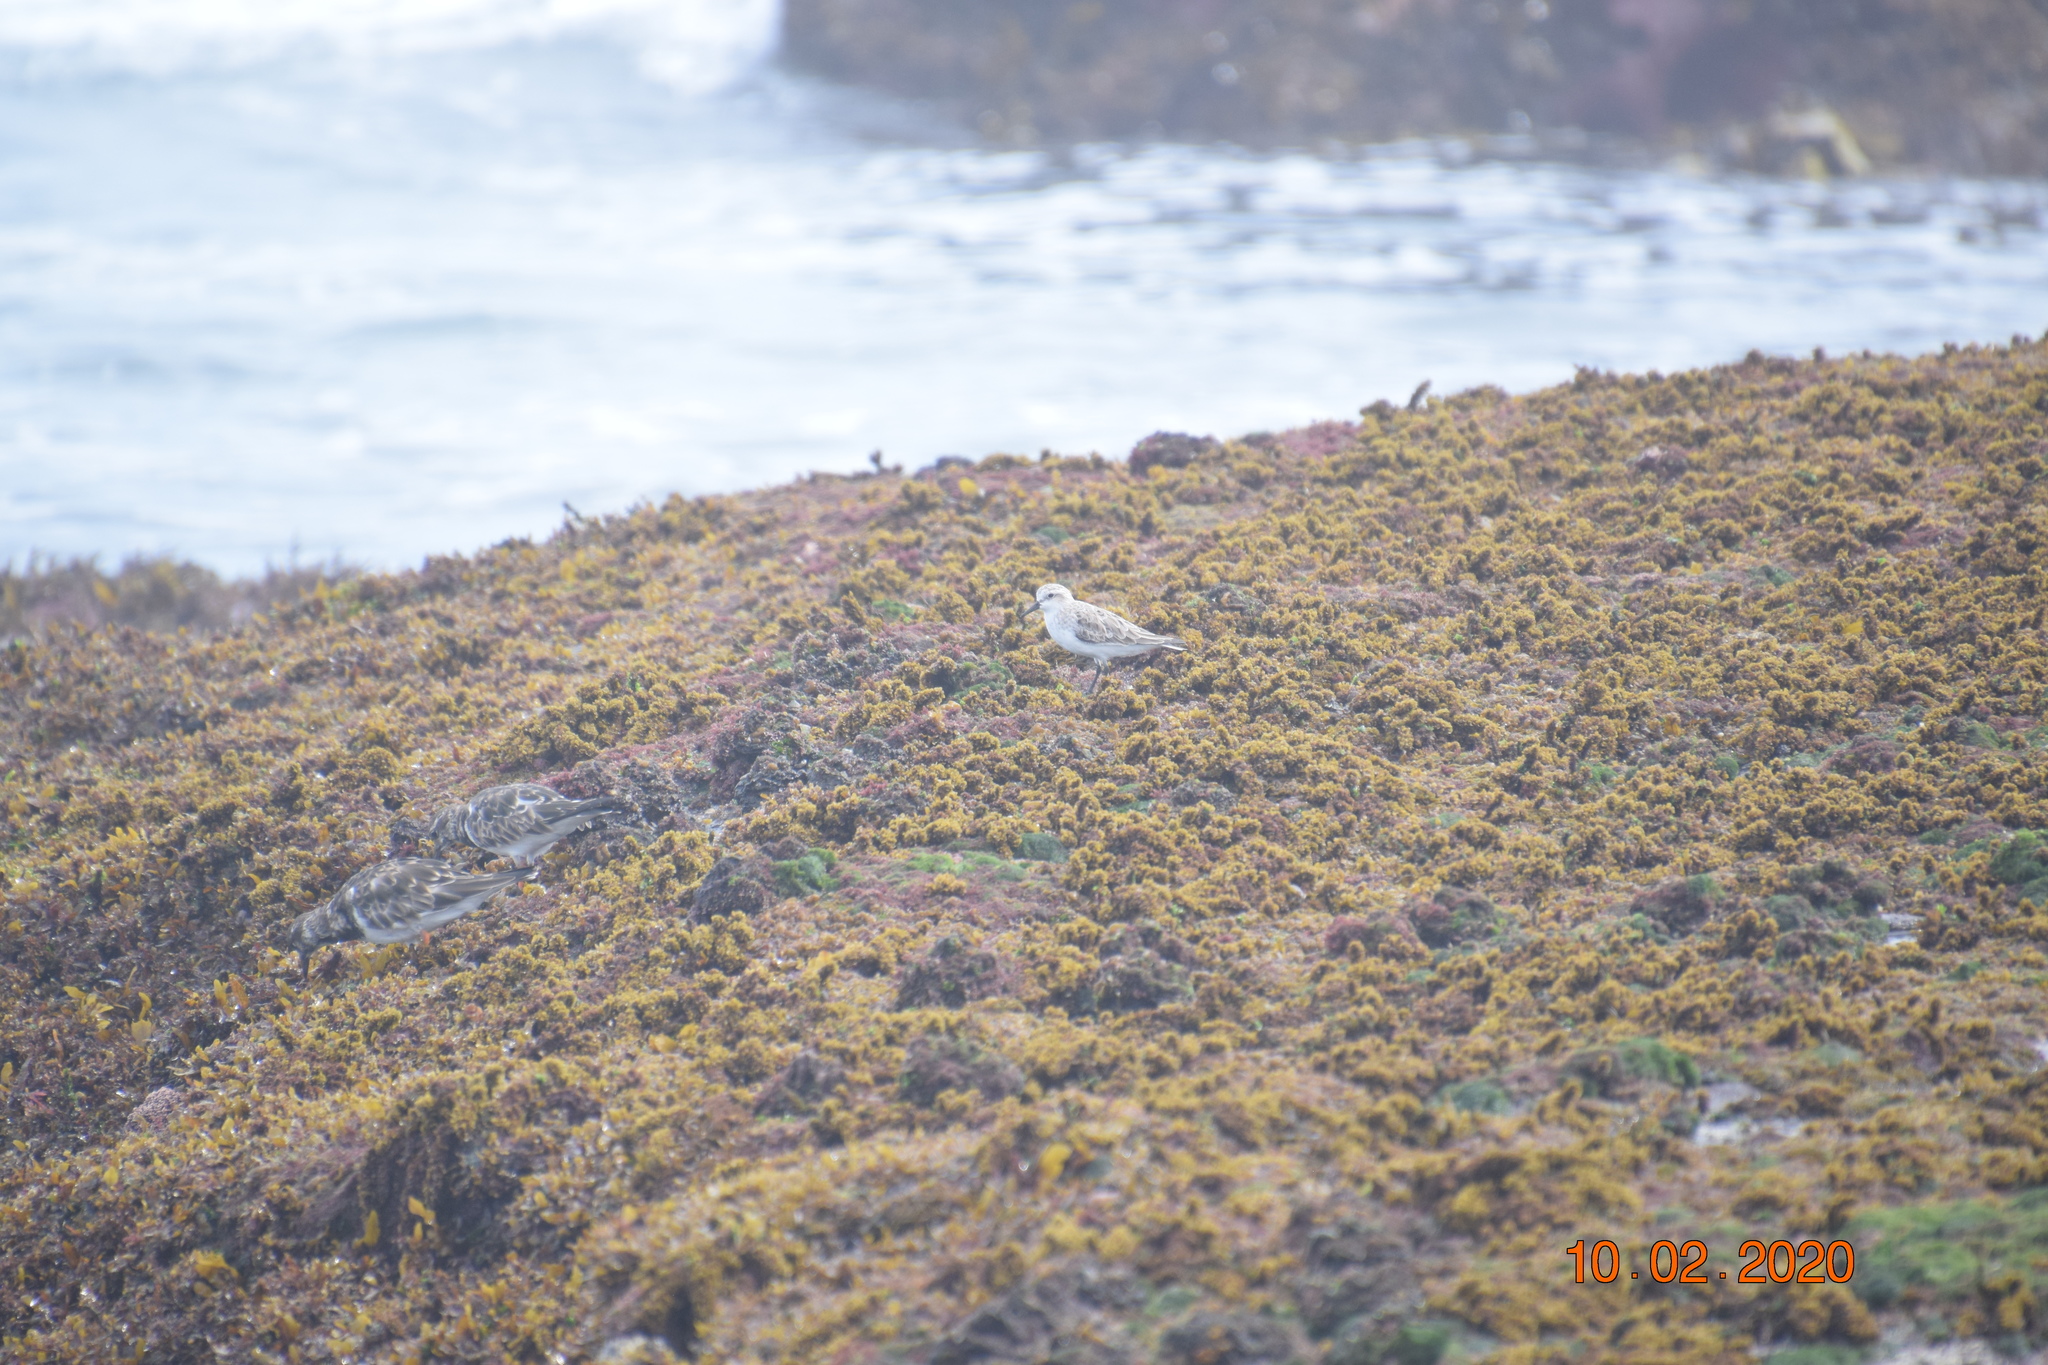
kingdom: Animalia
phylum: Chordata
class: Aves
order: Charadriiformes
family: Scolopacidae
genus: Calidris
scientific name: Calidris ruficollis
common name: Red-necked stint
